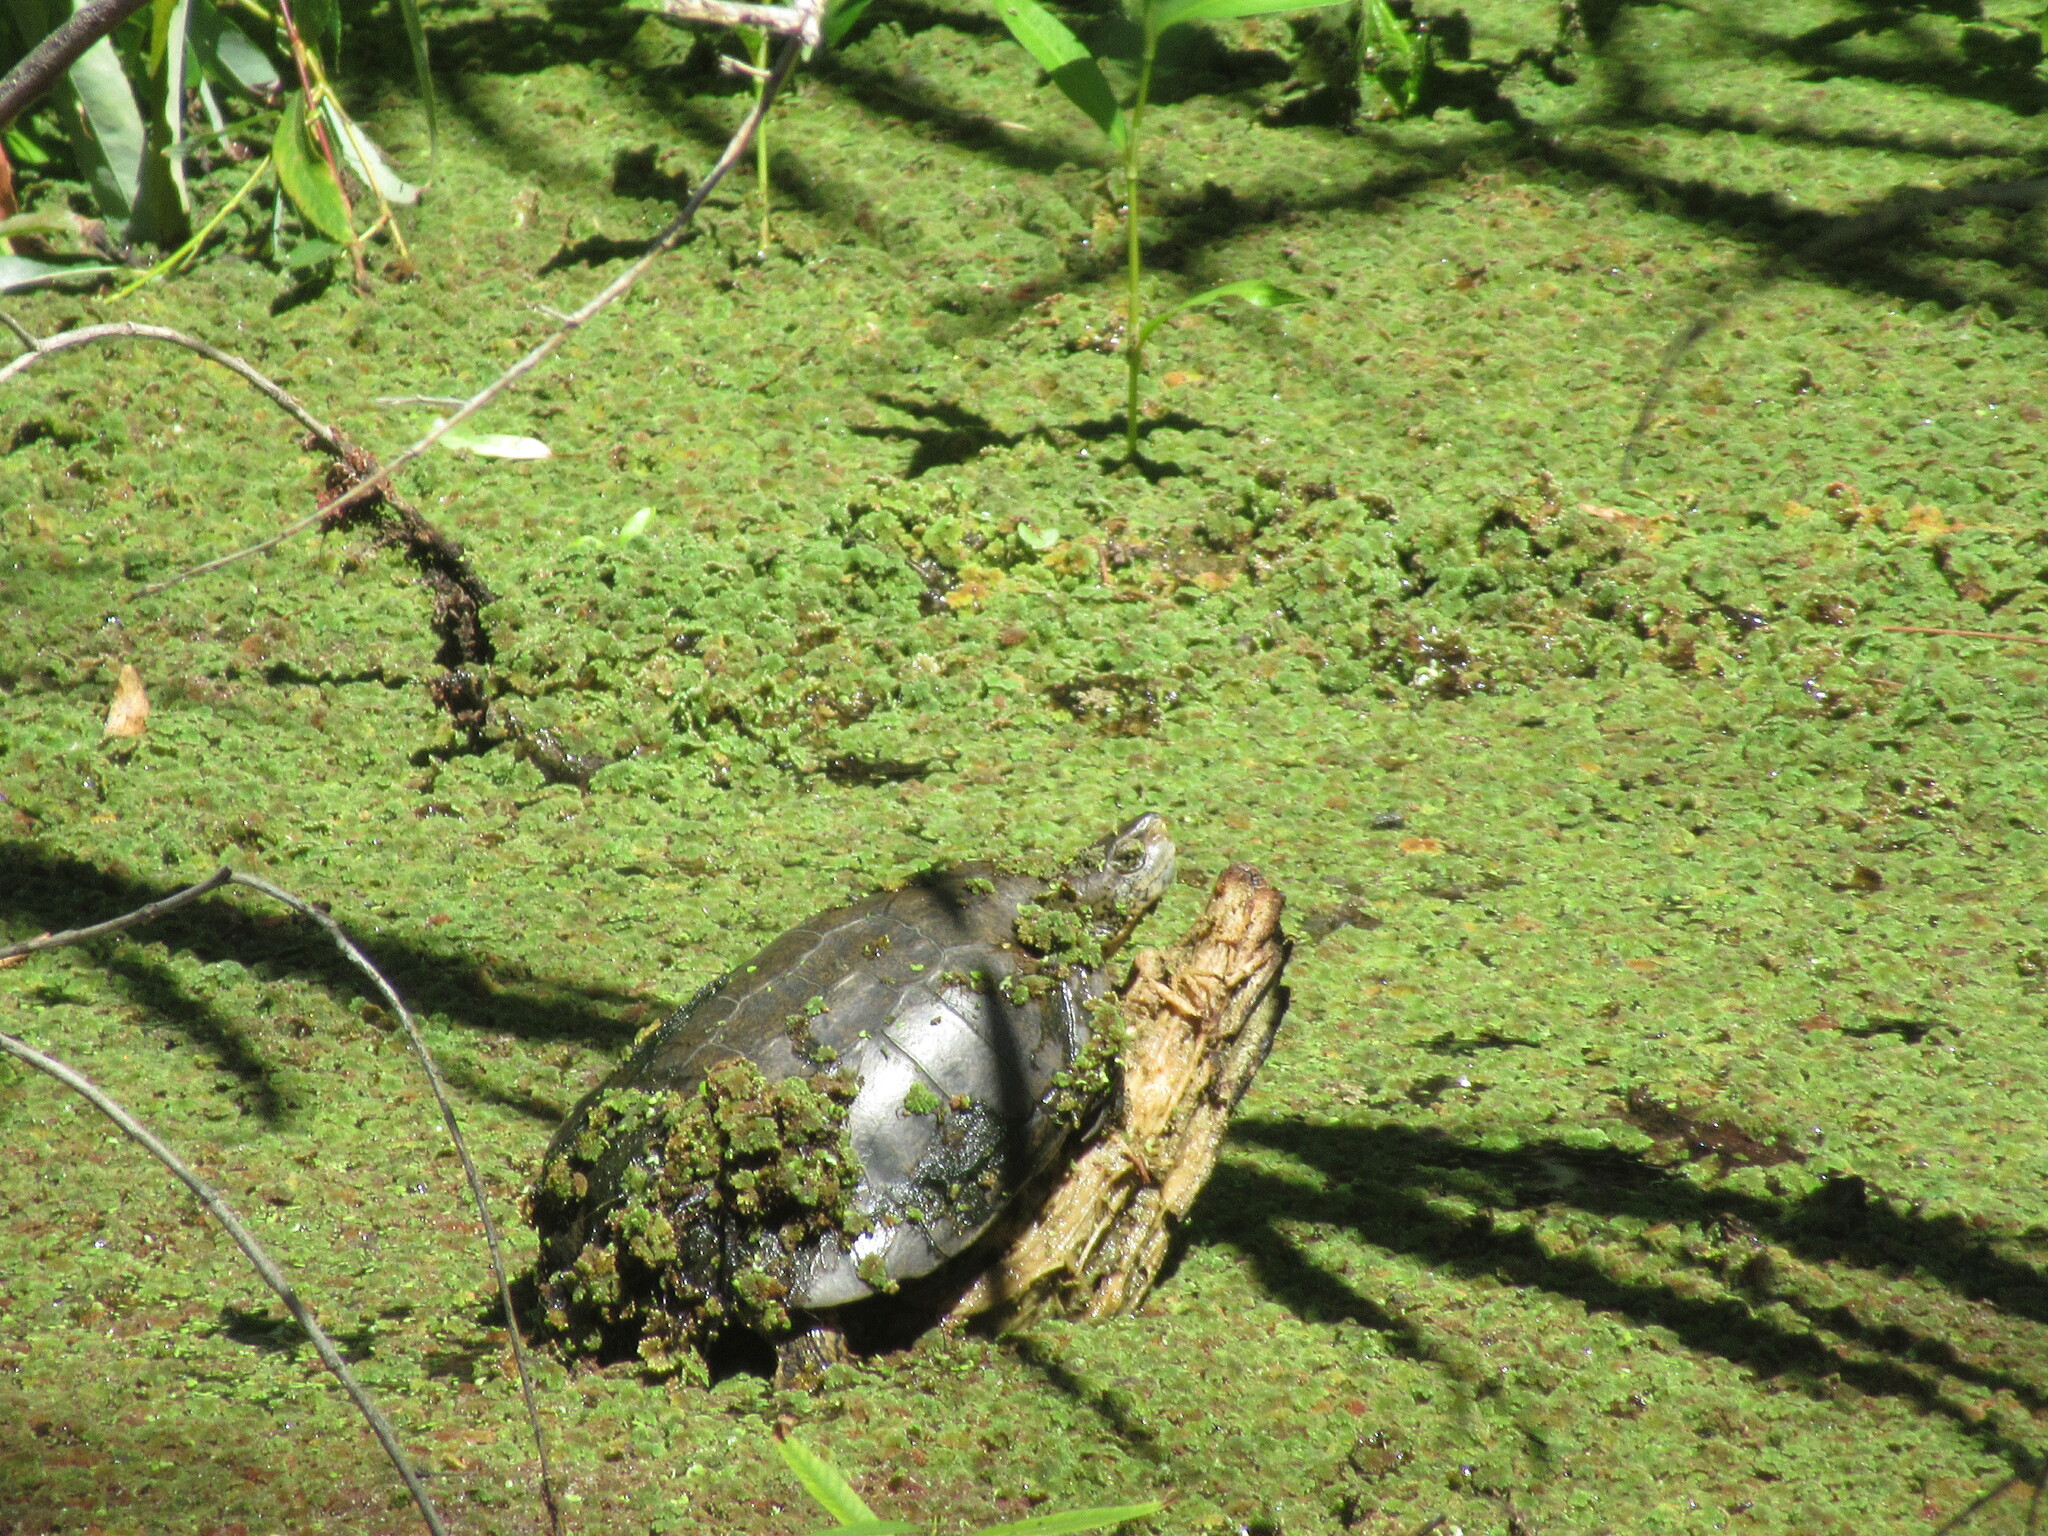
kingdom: Animalia
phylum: Chordata
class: Testudines
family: Emydidae
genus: Actinemys
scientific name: Actinemys marmorata
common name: Western pond turtle
